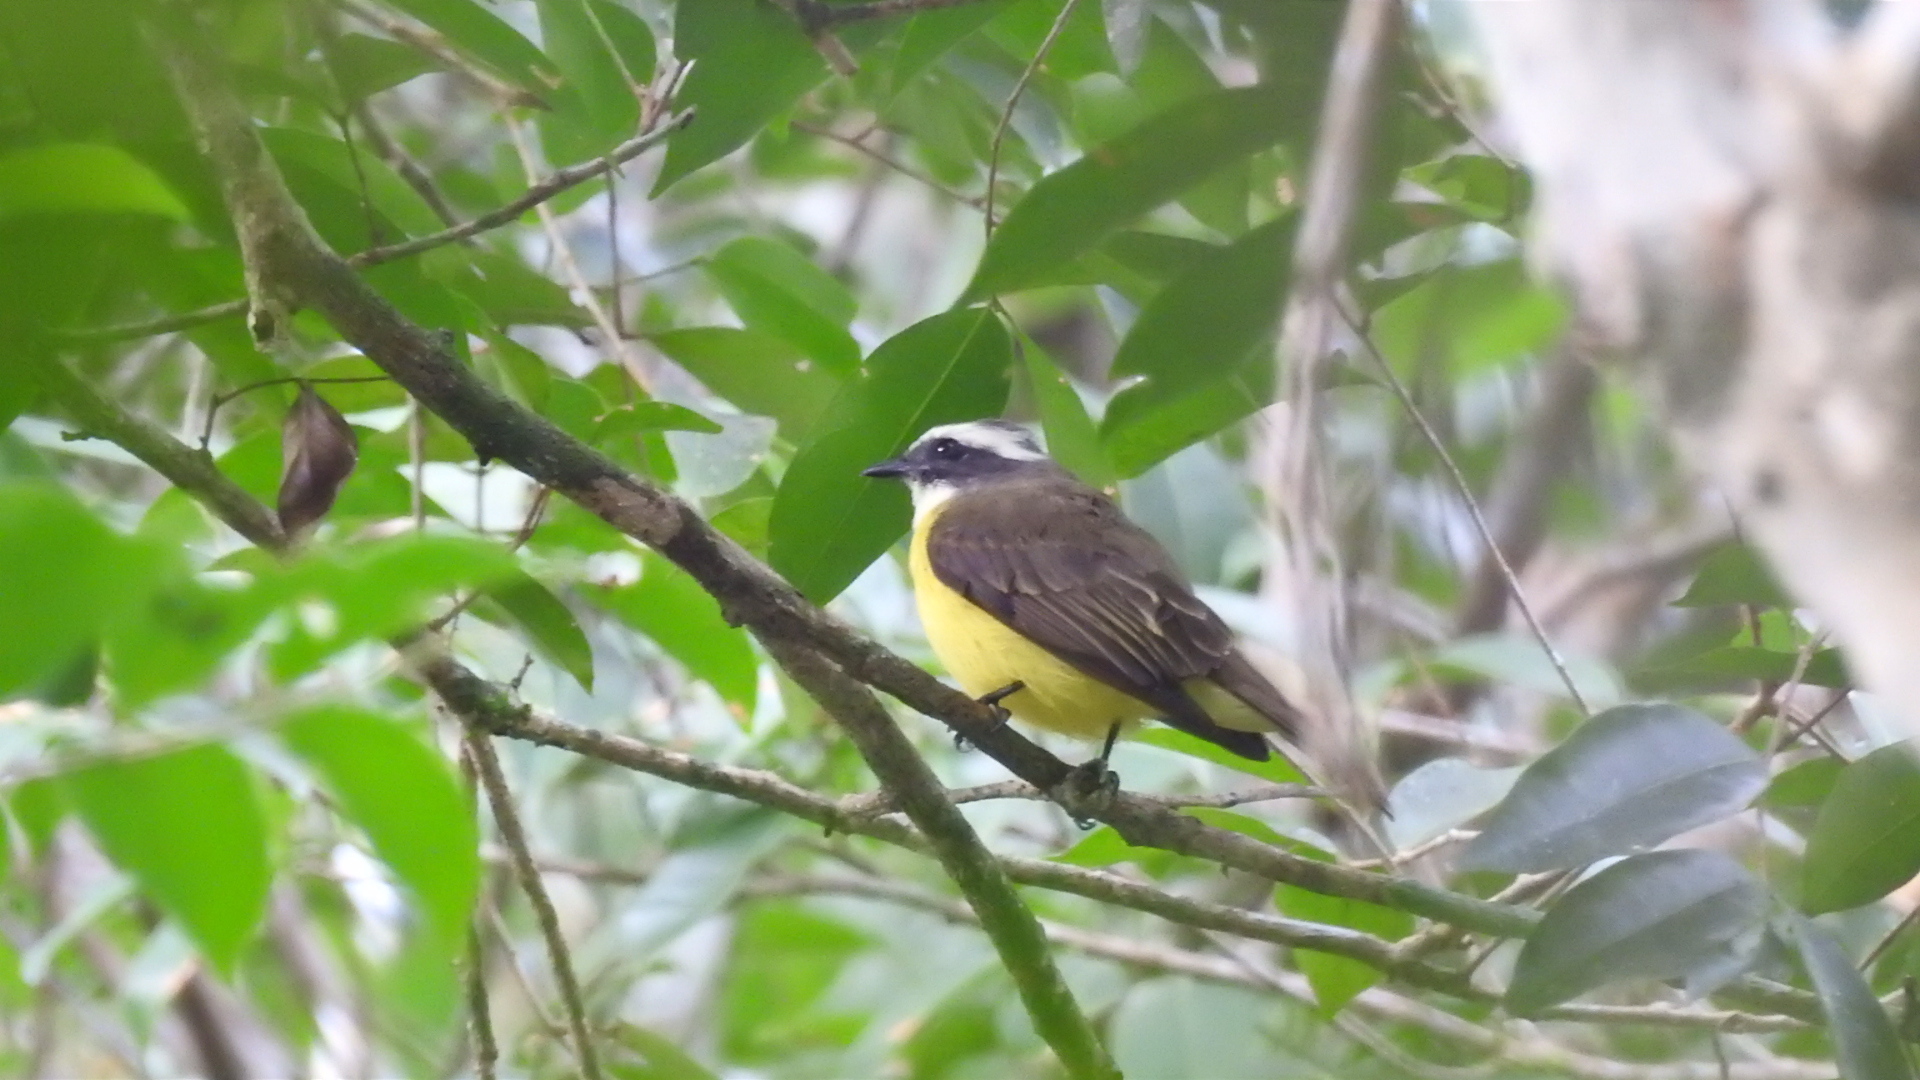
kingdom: Animalia
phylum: Chordata
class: Aves
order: Passeriformes
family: Tyrannidae
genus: Myiozetetes
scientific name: Myiozetetes similis
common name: Social flycatcher
